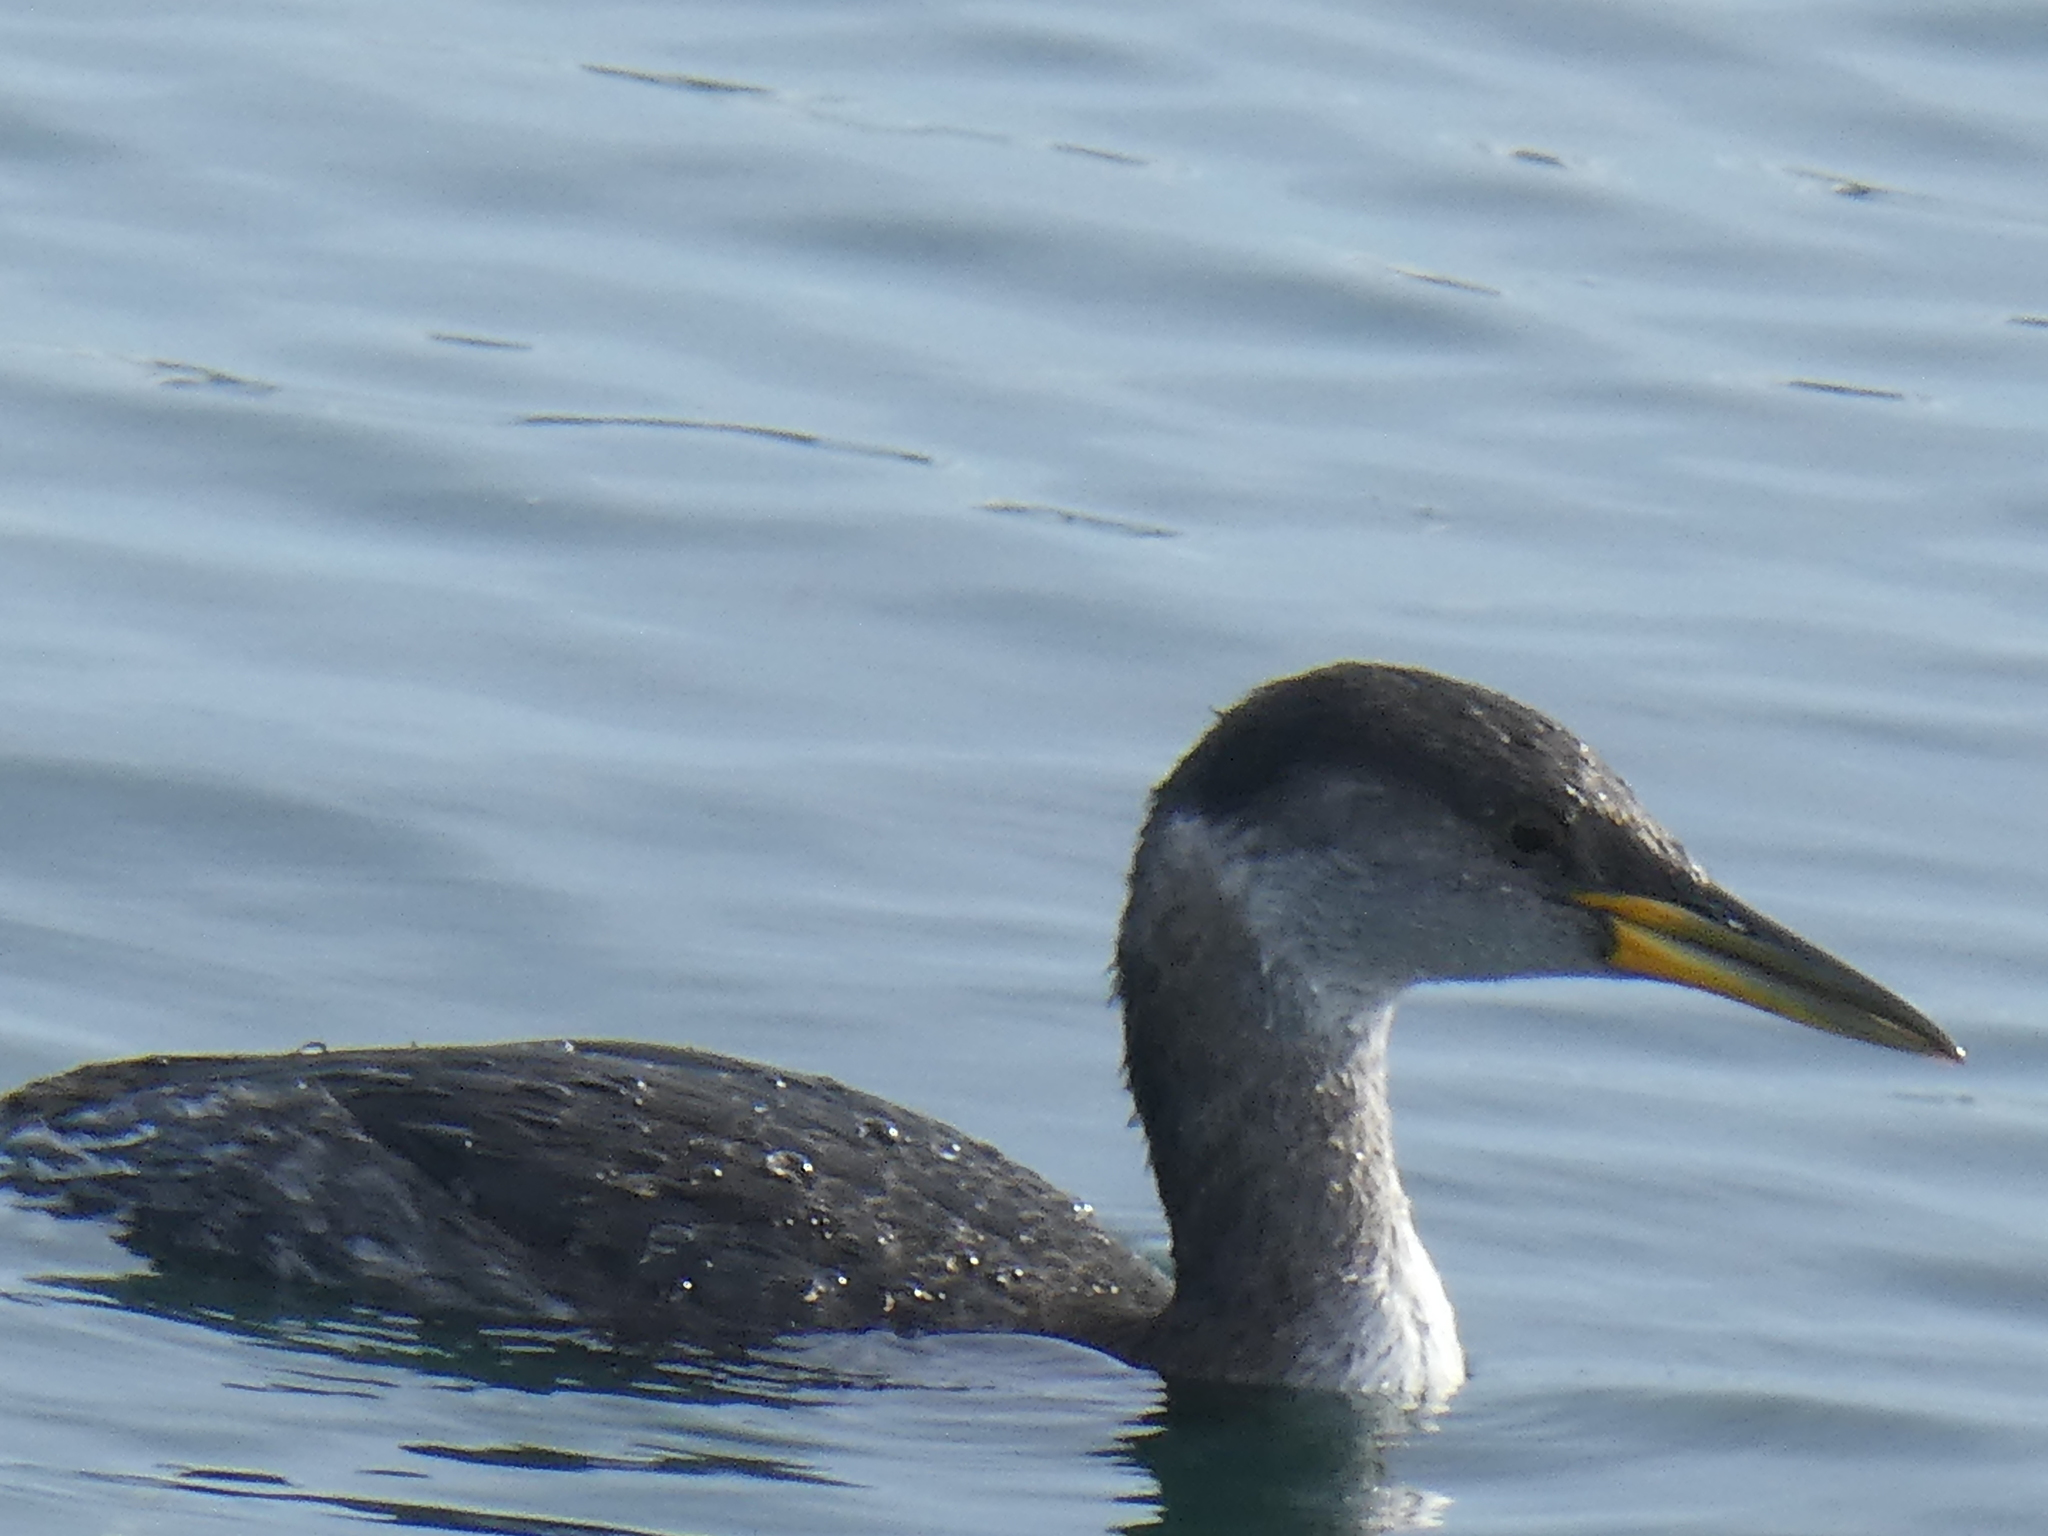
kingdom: Animalia
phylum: Chordata
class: Aves
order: Podicipediformes
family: Podicipedidae
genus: Podiceps
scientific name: Podiceps grisegena
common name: Red-necked grebe
